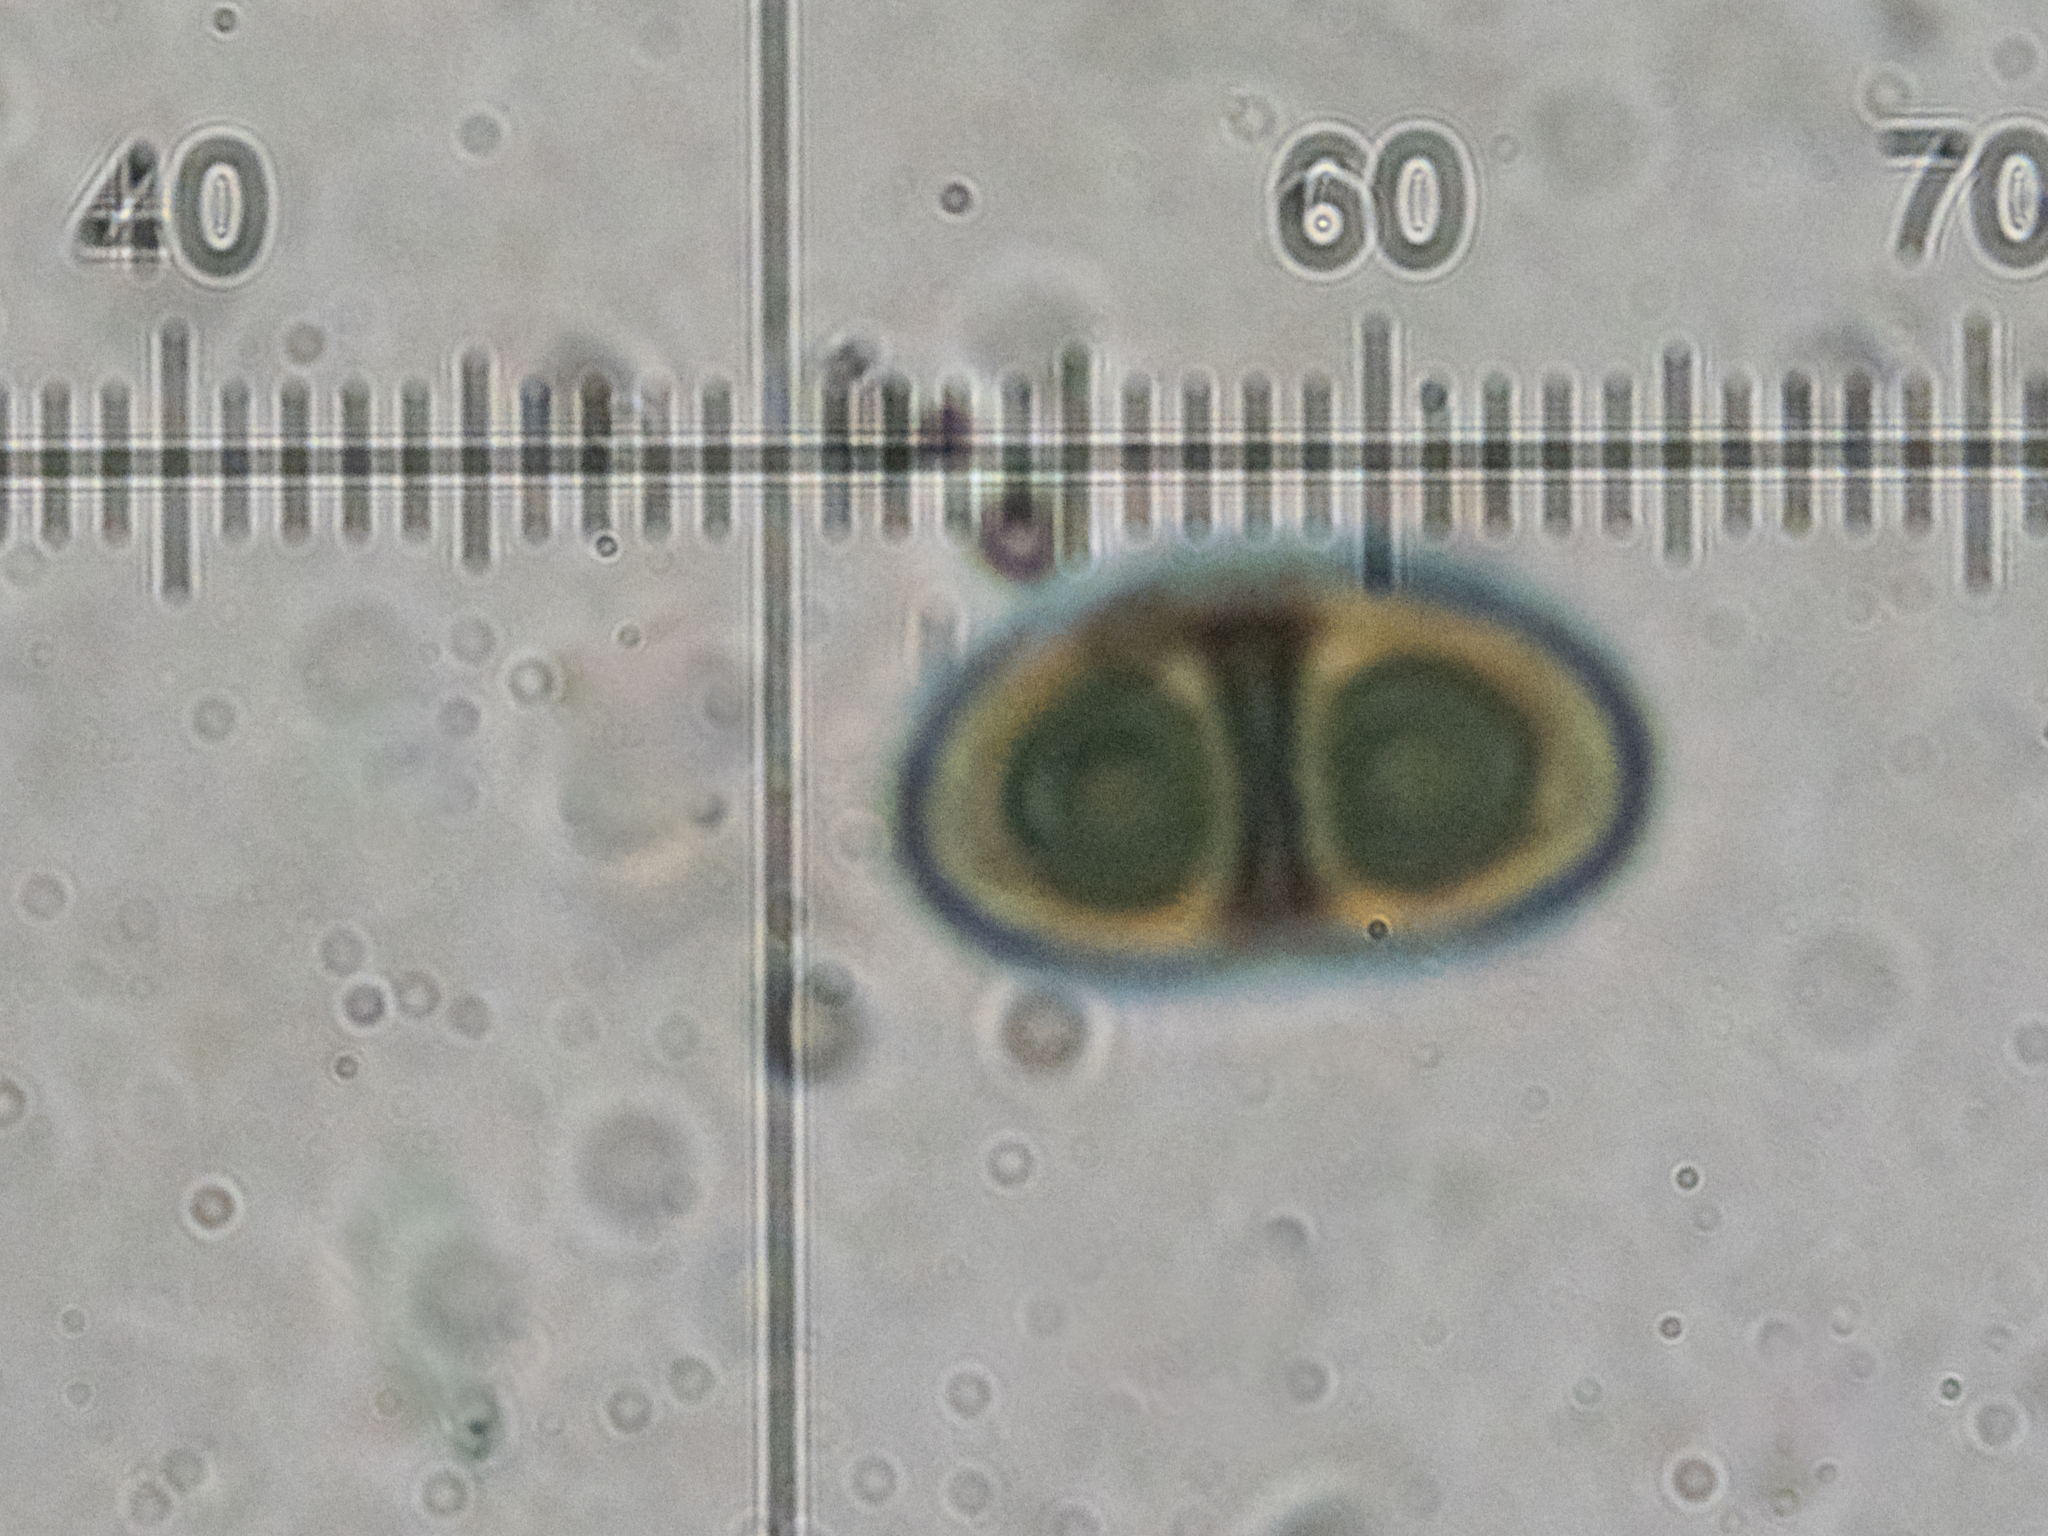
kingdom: Fungi
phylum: Ascomycota
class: Lecanoromycetes
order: Caliciales
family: Caliciaceae
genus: Amandinea
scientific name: Amandinea punctata
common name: Tiny button lichen
